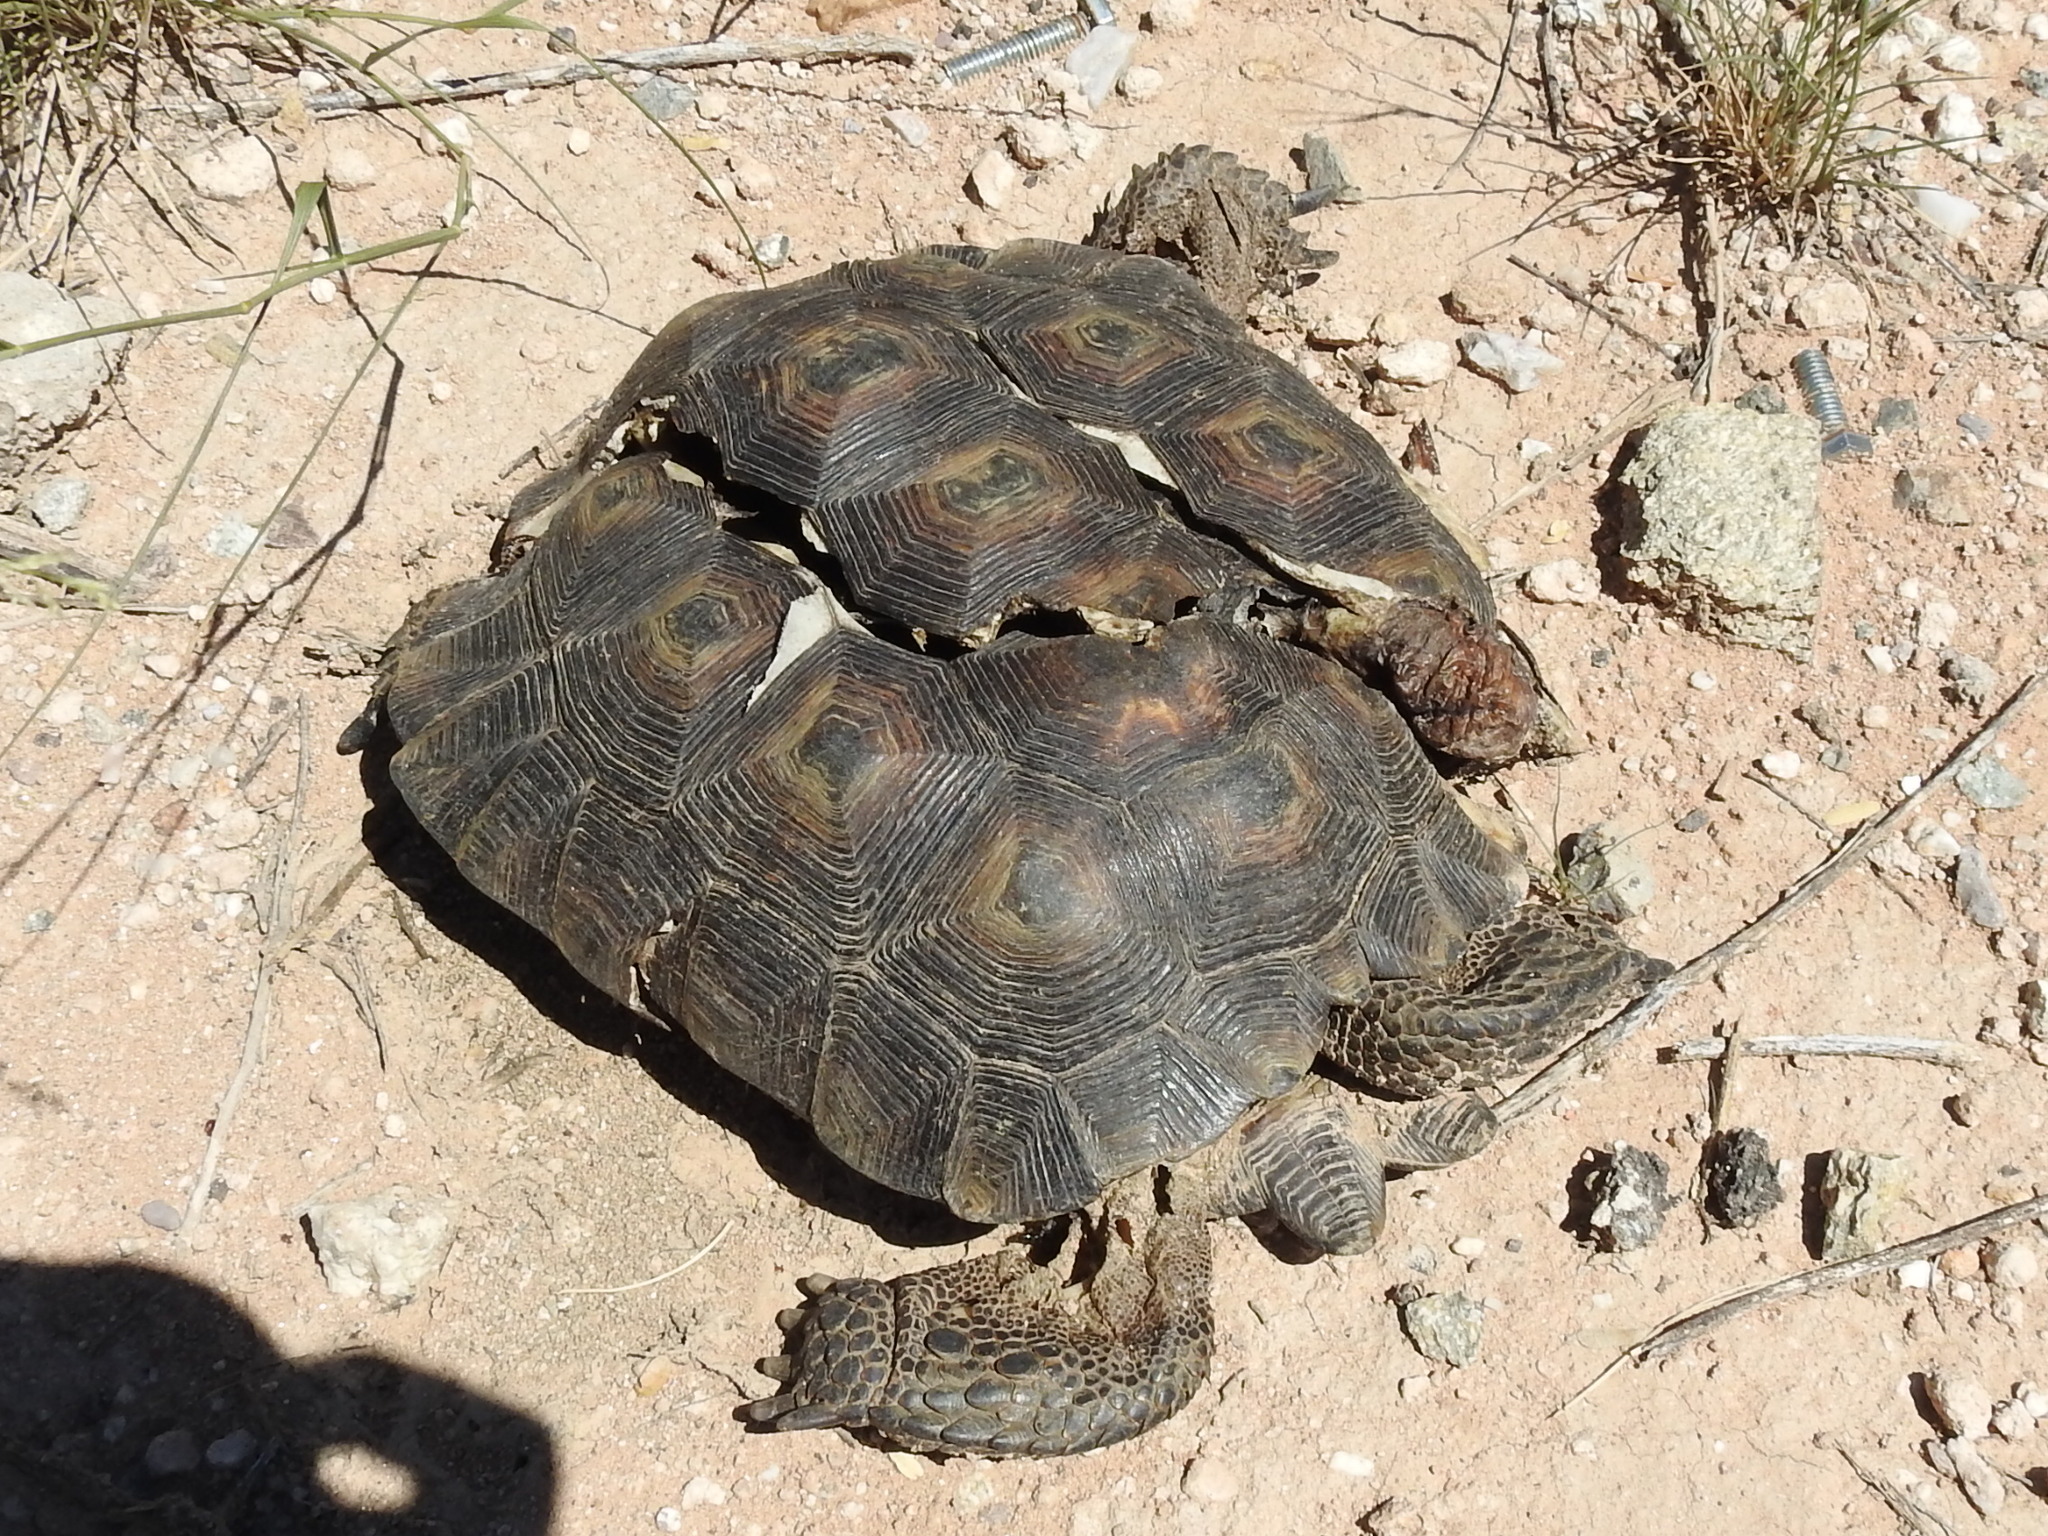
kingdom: Animalia
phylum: Chordata
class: Testudines
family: Testudinidae
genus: Gopherus
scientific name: Gopherus morafkai
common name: Sonoran desert tortoise
